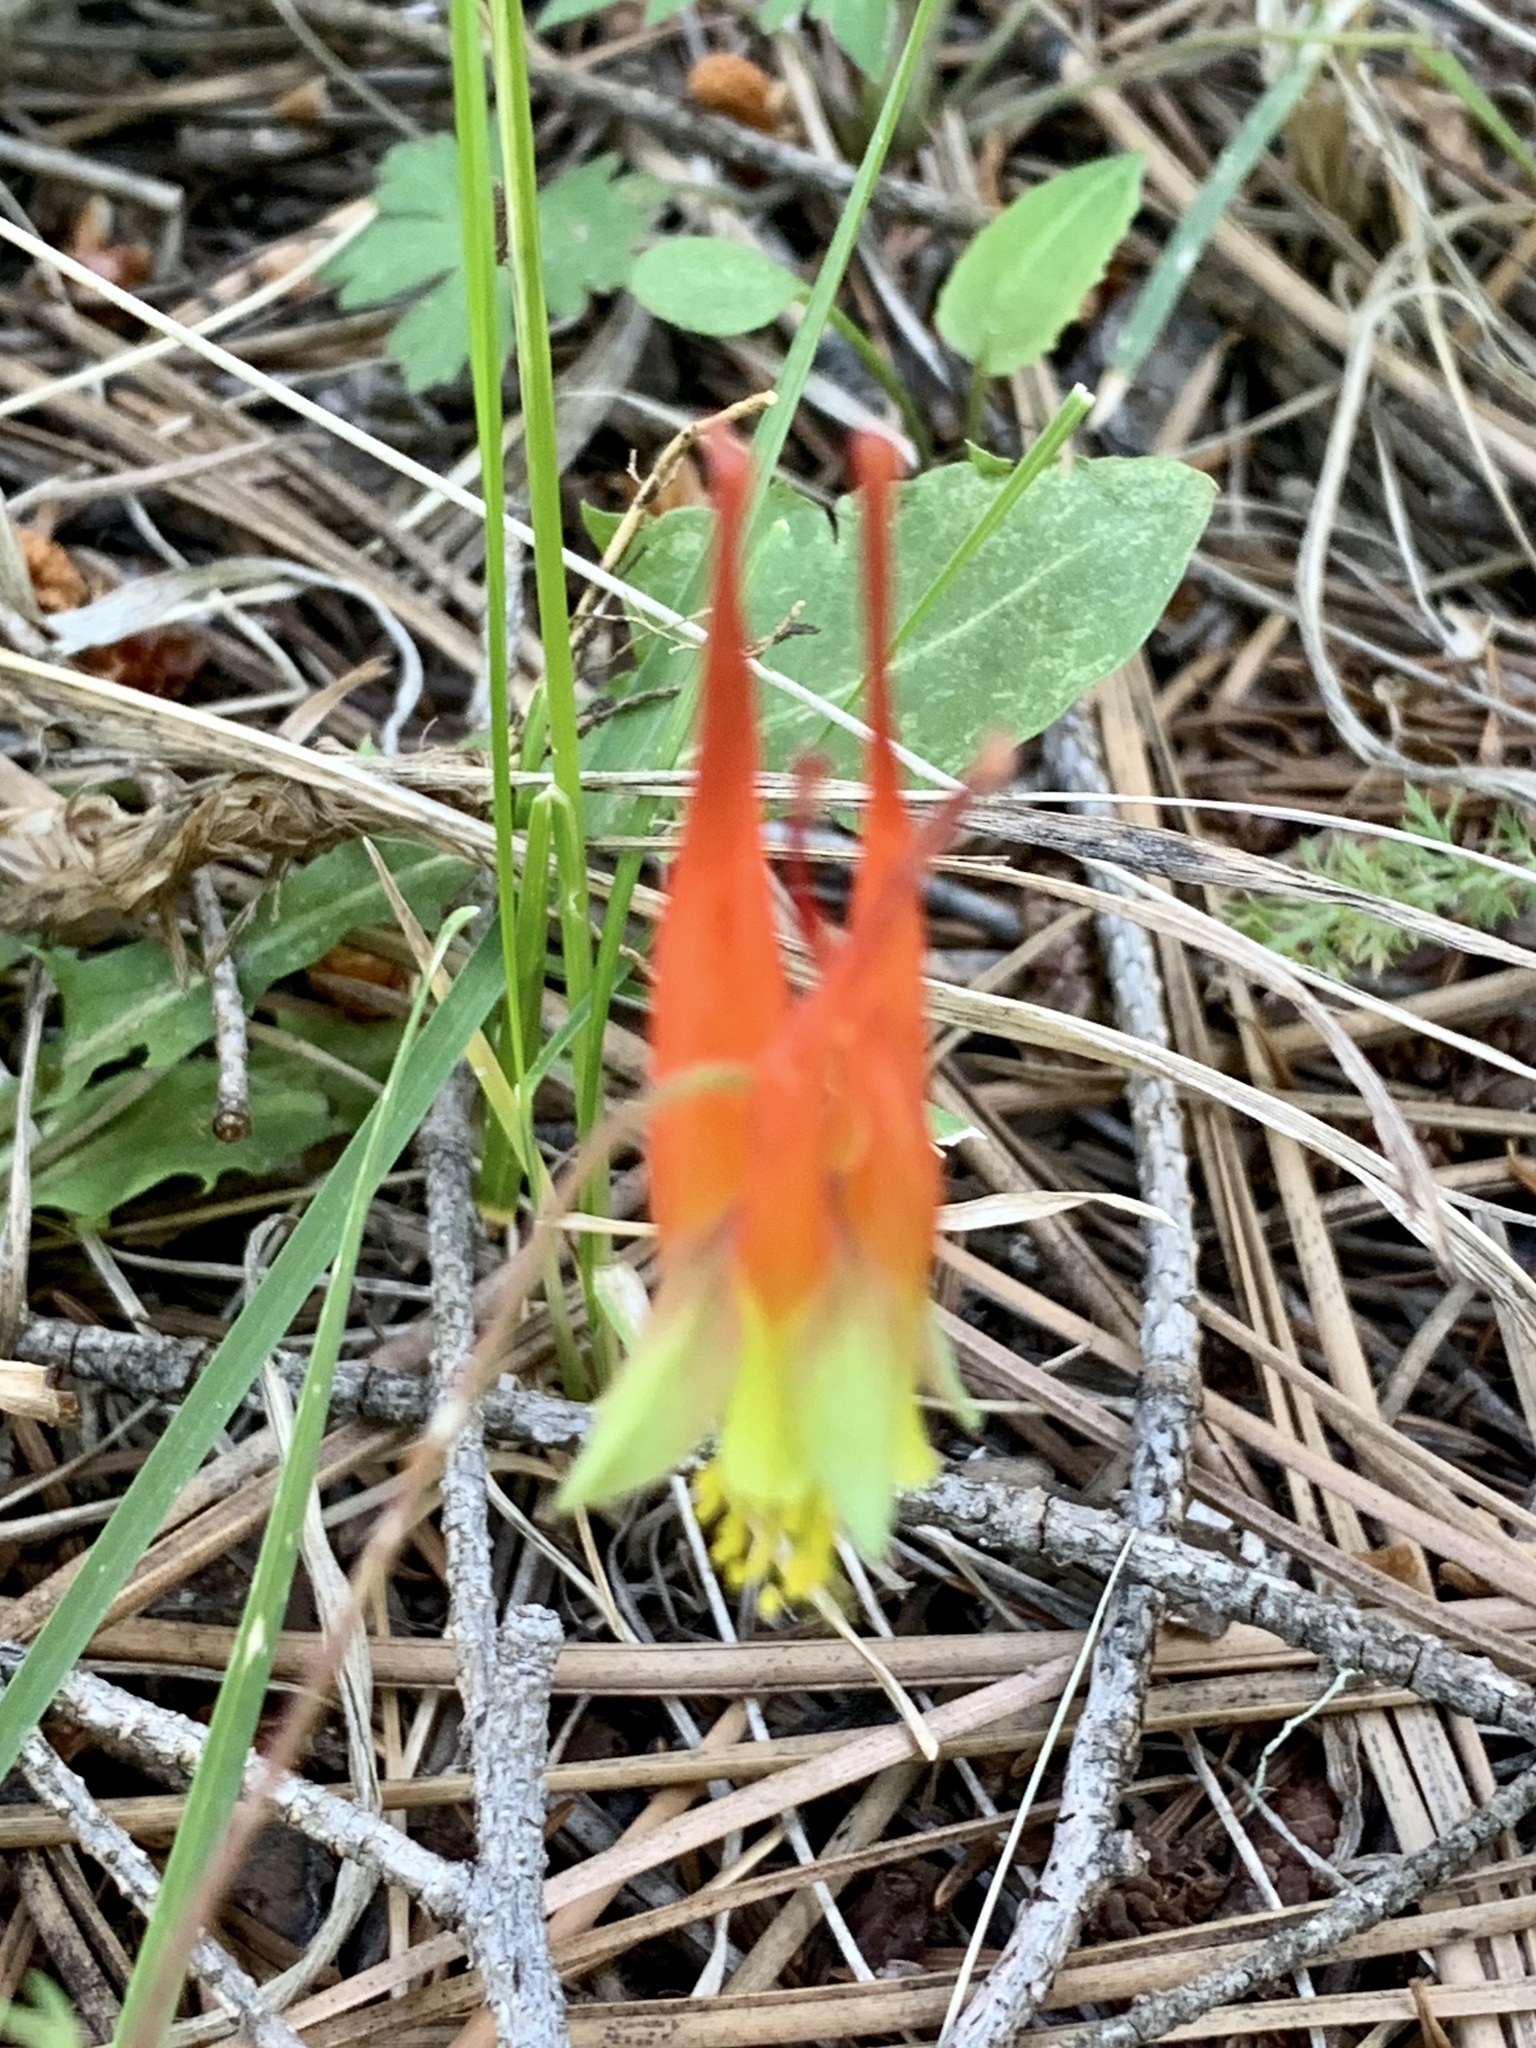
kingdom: Plantae
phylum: Tracheophyta
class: Magnoliopsida
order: Ranunculales
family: Ranunculaceae
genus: Aquilegia
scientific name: Aquilegia elegantula
